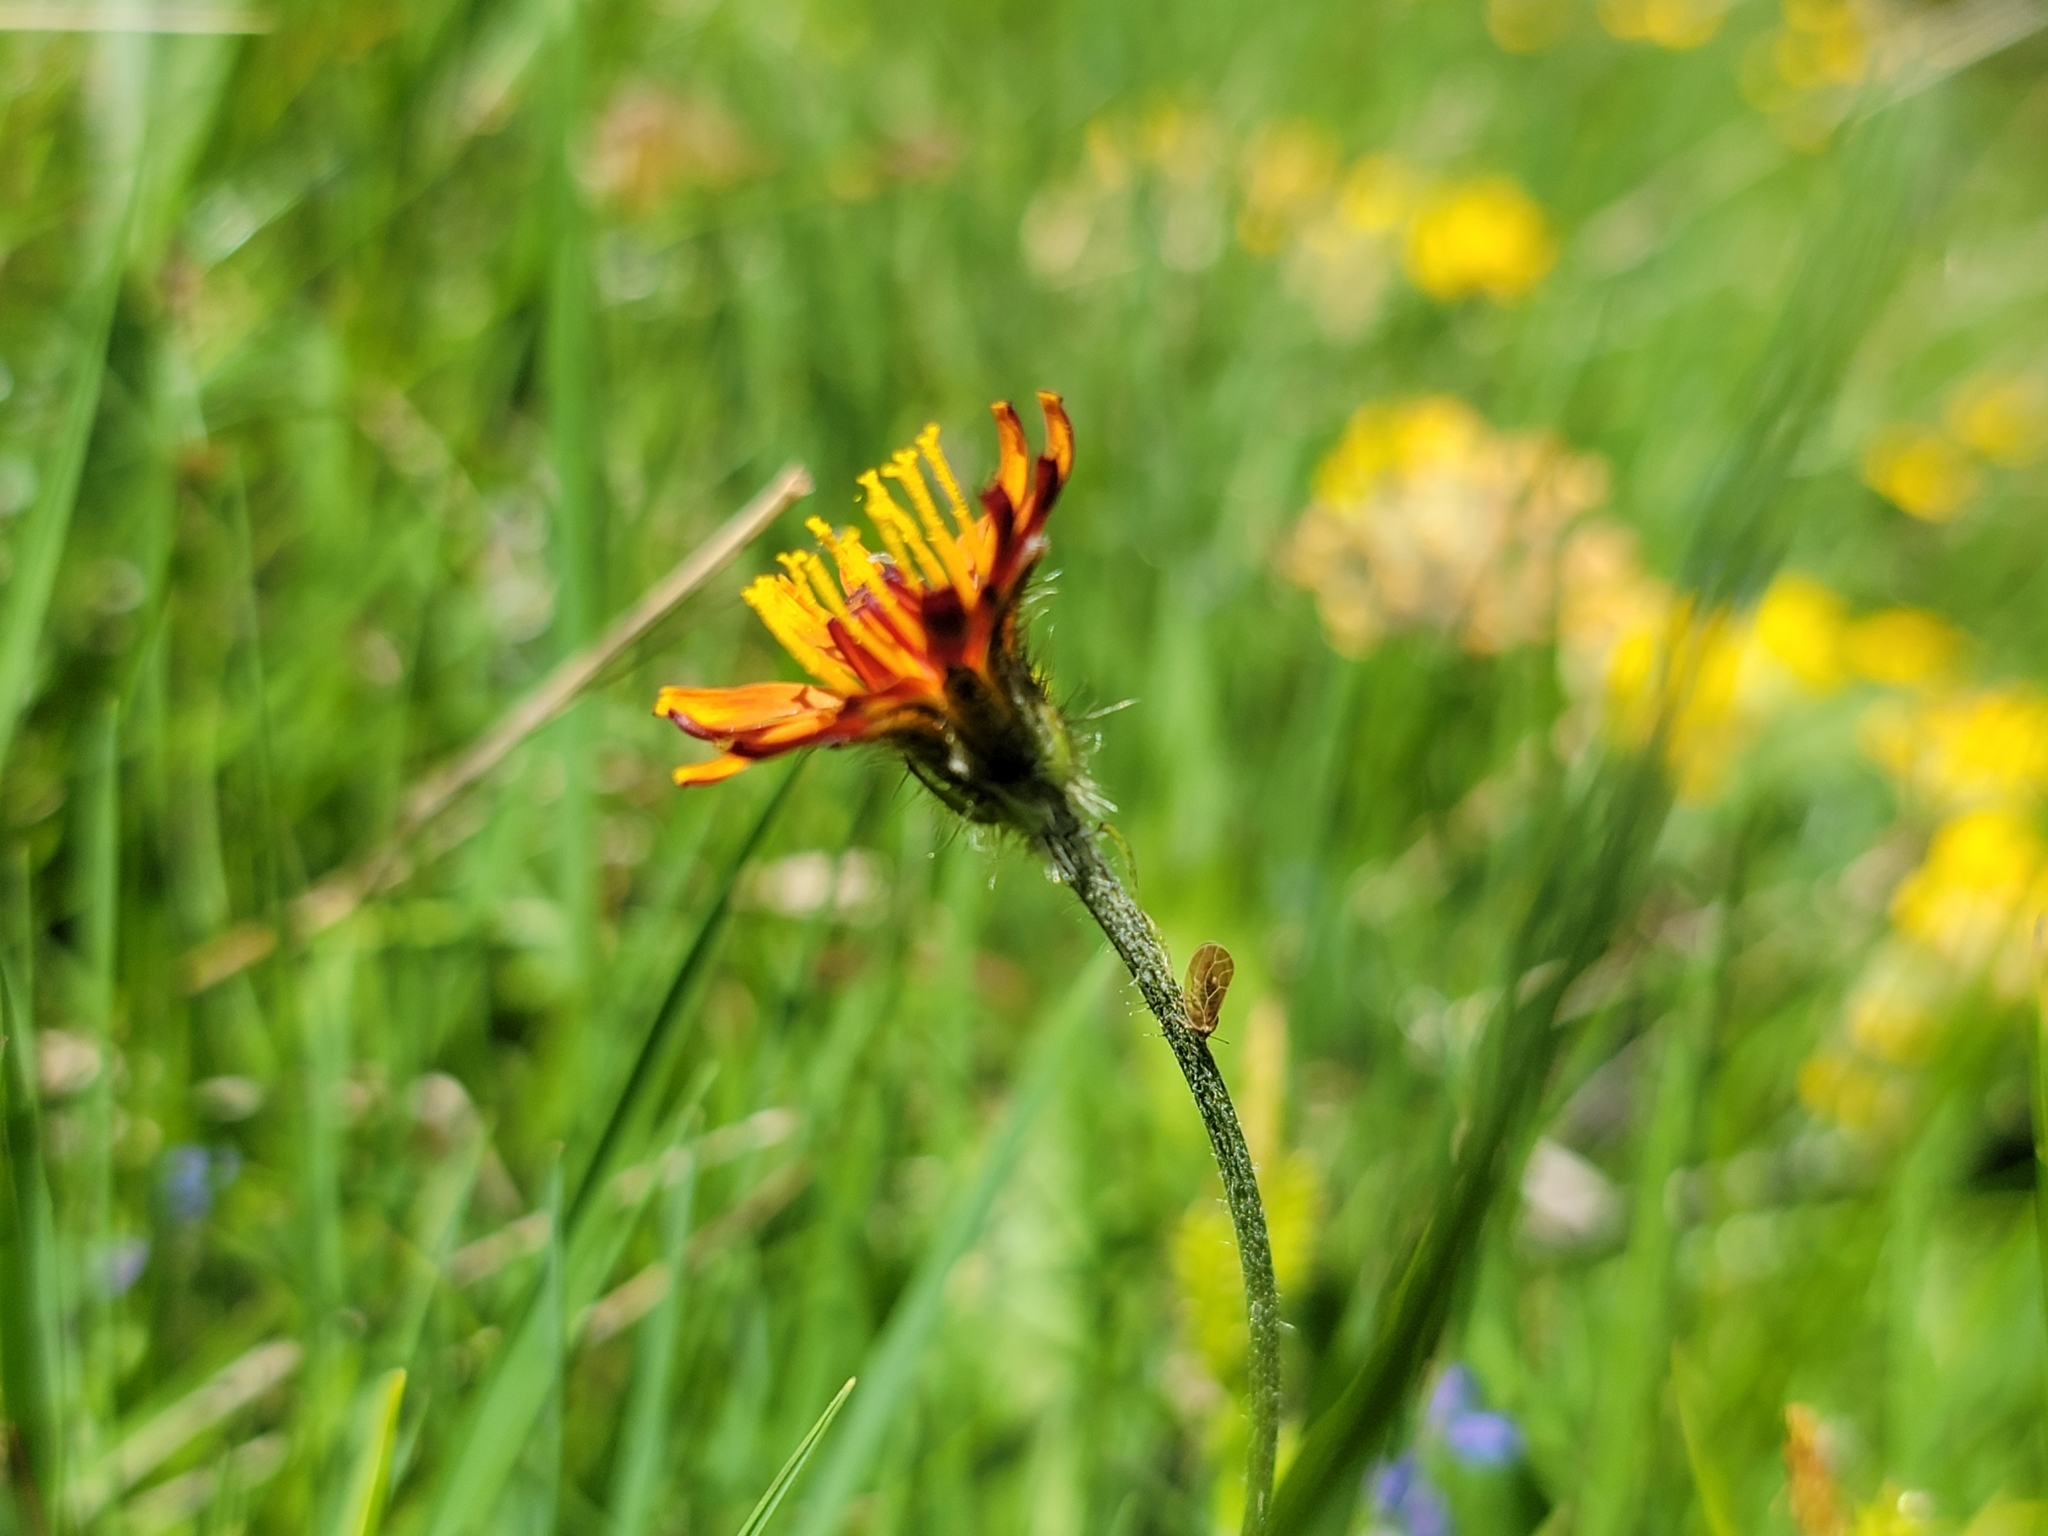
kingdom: Plantae
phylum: Tracheophyta
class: Magnoliopsida
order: Asterales
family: Asteraceae
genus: Crepis
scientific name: Crepis aurea
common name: Golden hawk's-beard
